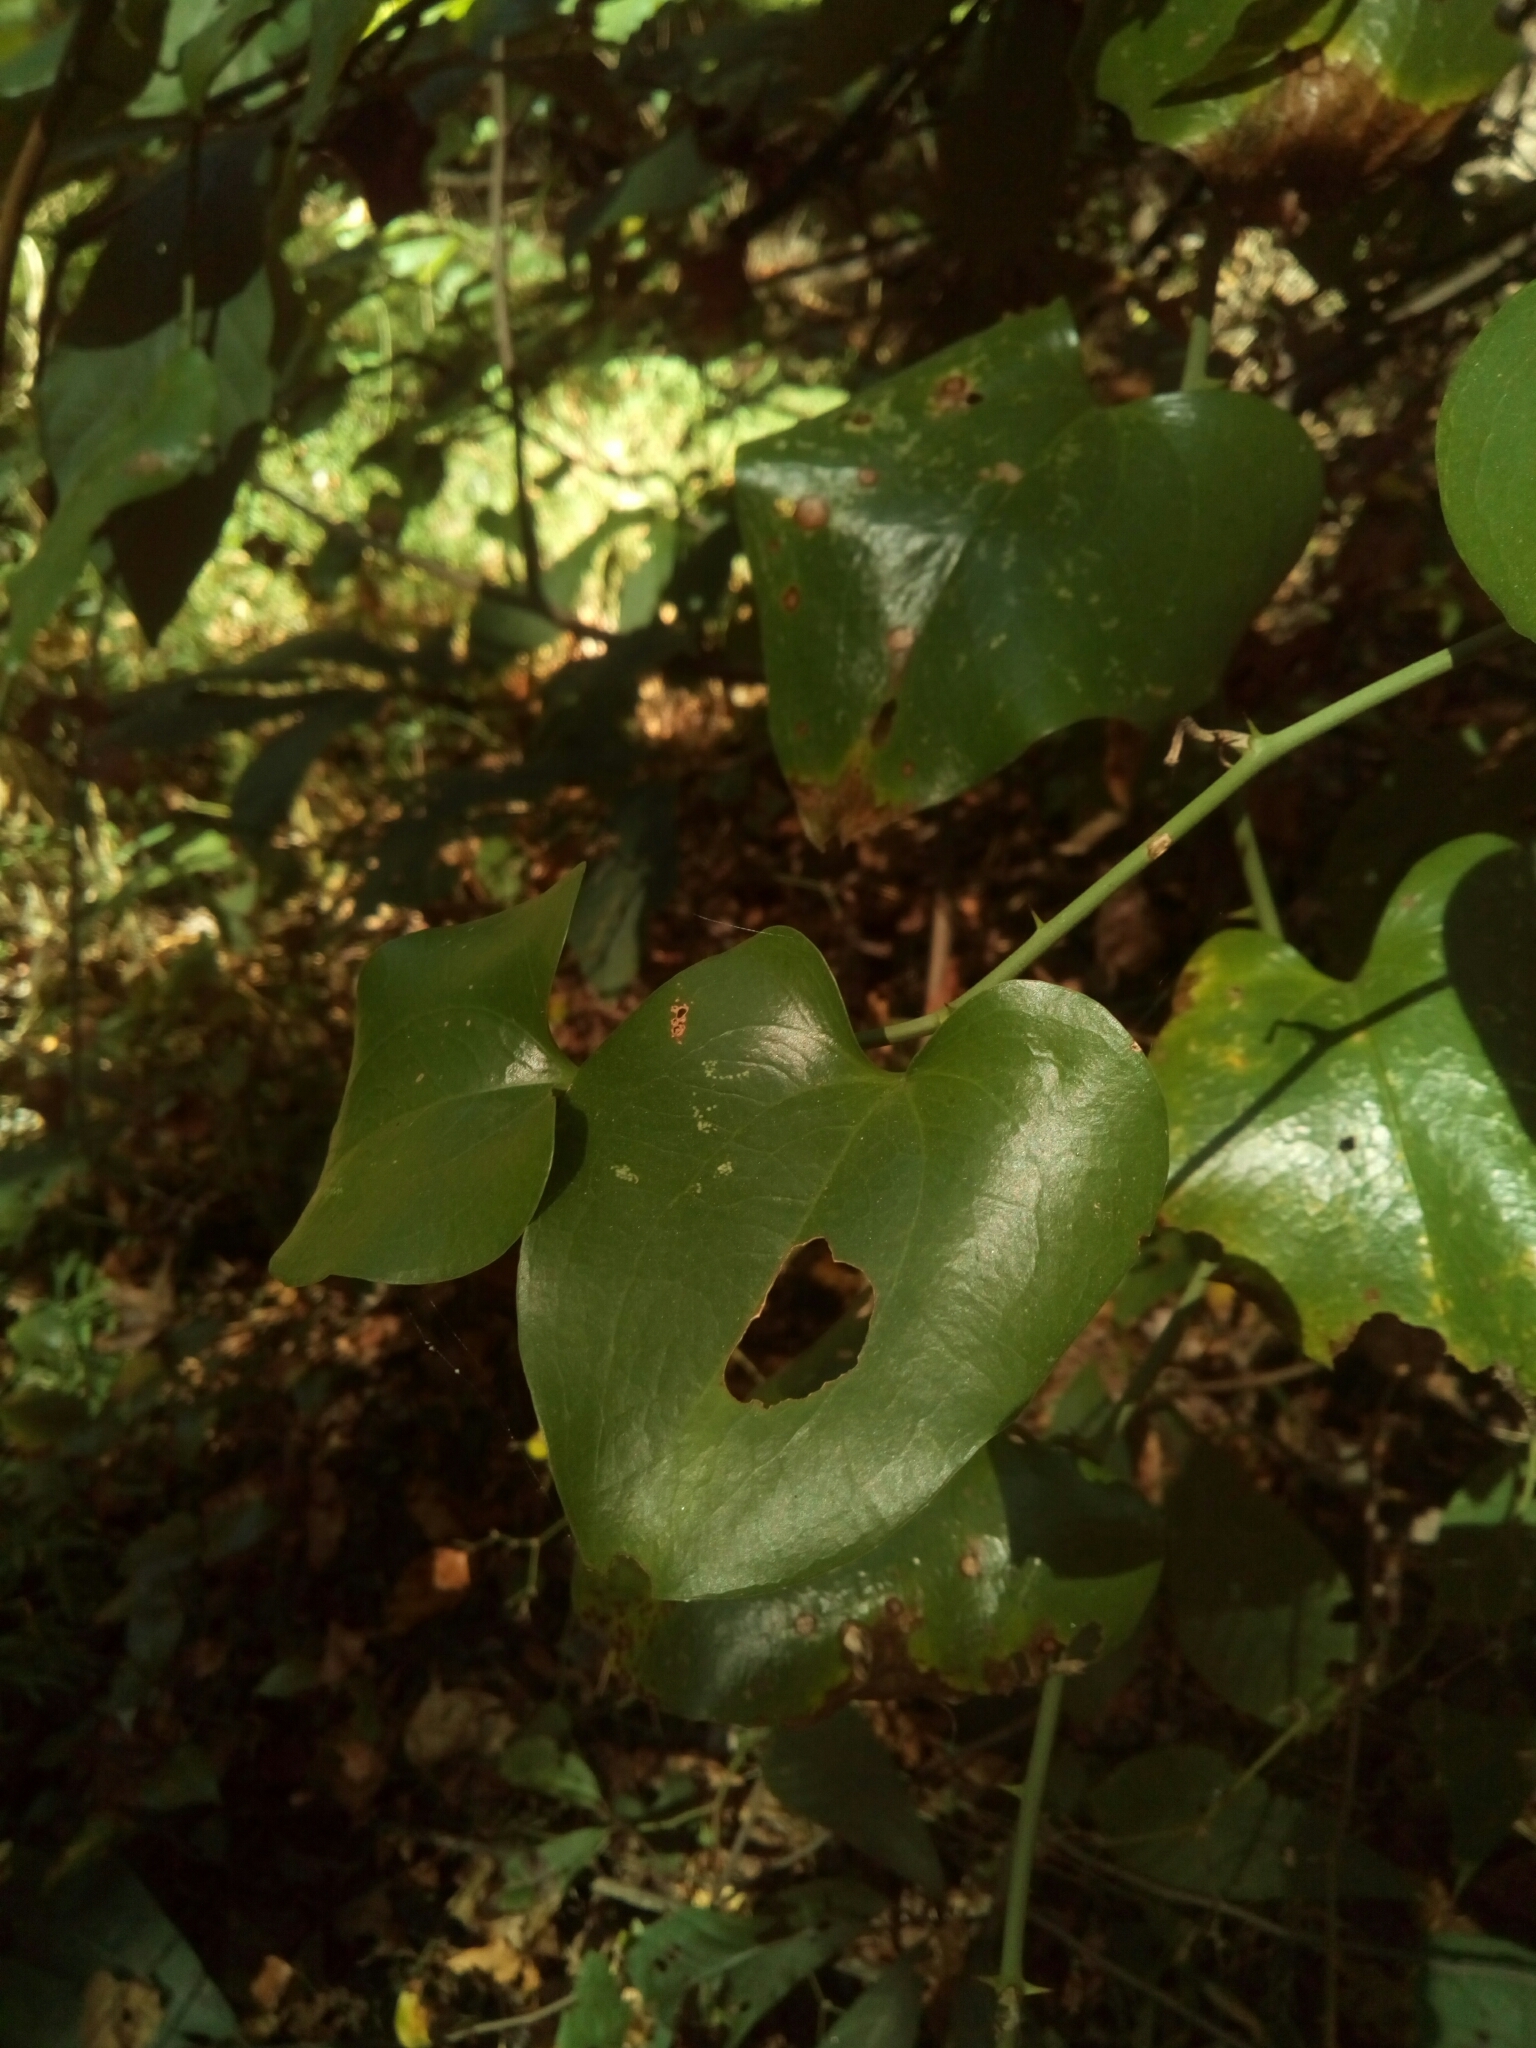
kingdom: Plantae
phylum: Tracheophyta
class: Liliopsida
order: Liliales
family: Smilacaceae
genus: Smilax
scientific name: Smilax rotundifolia
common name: Bullbriar
